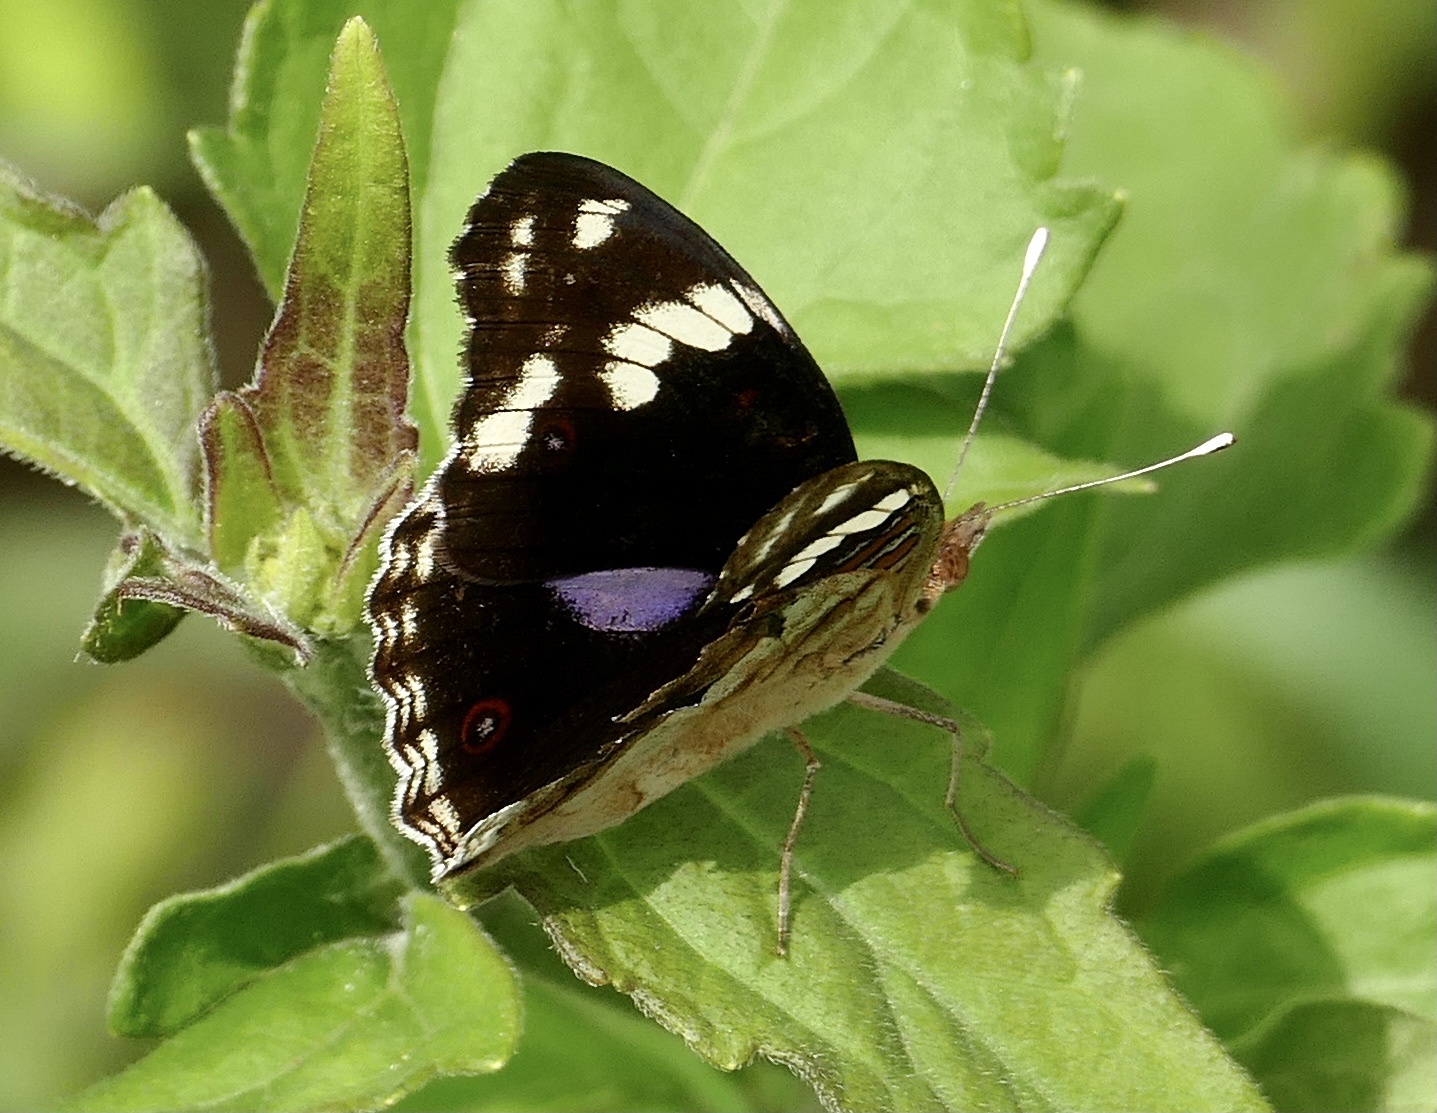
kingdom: Animalia
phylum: Arthropoda
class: Insecta
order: Lepidoptera
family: Nymphalidae
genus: Junonia
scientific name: Junonia oenone
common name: Dark blue pansy
